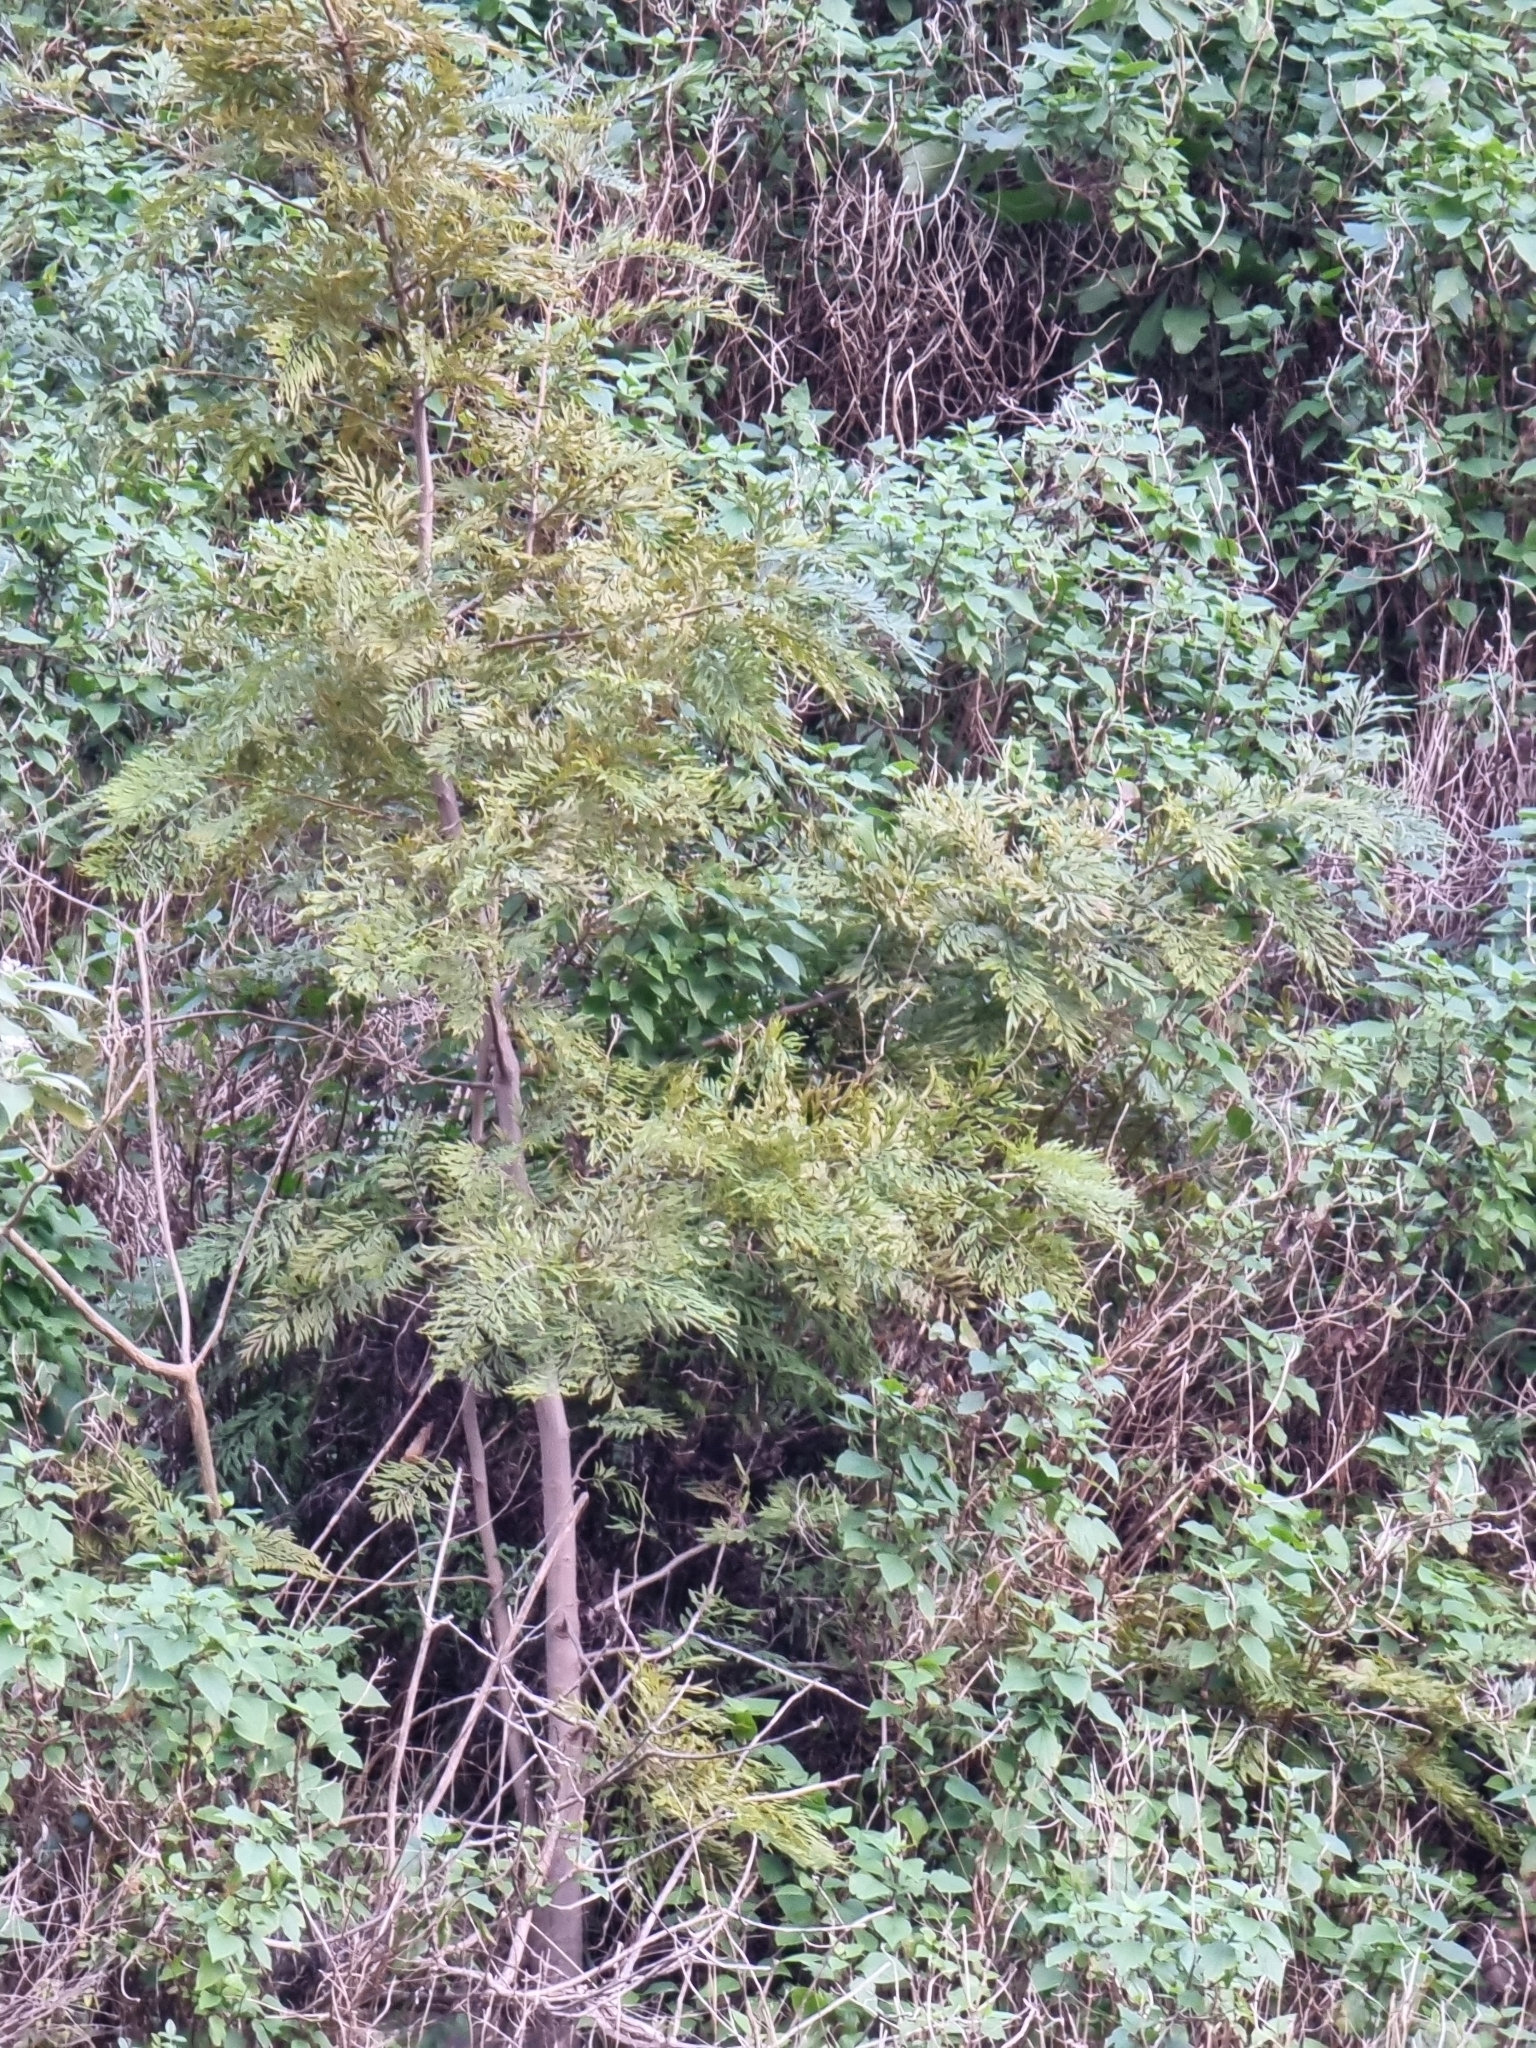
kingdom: Plantae
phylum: Tracheophyta
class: Magnoliopsida
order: Proteales
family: Proteaceae
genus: Grevillea
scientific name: Grevillea robusta
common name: Silkoak
